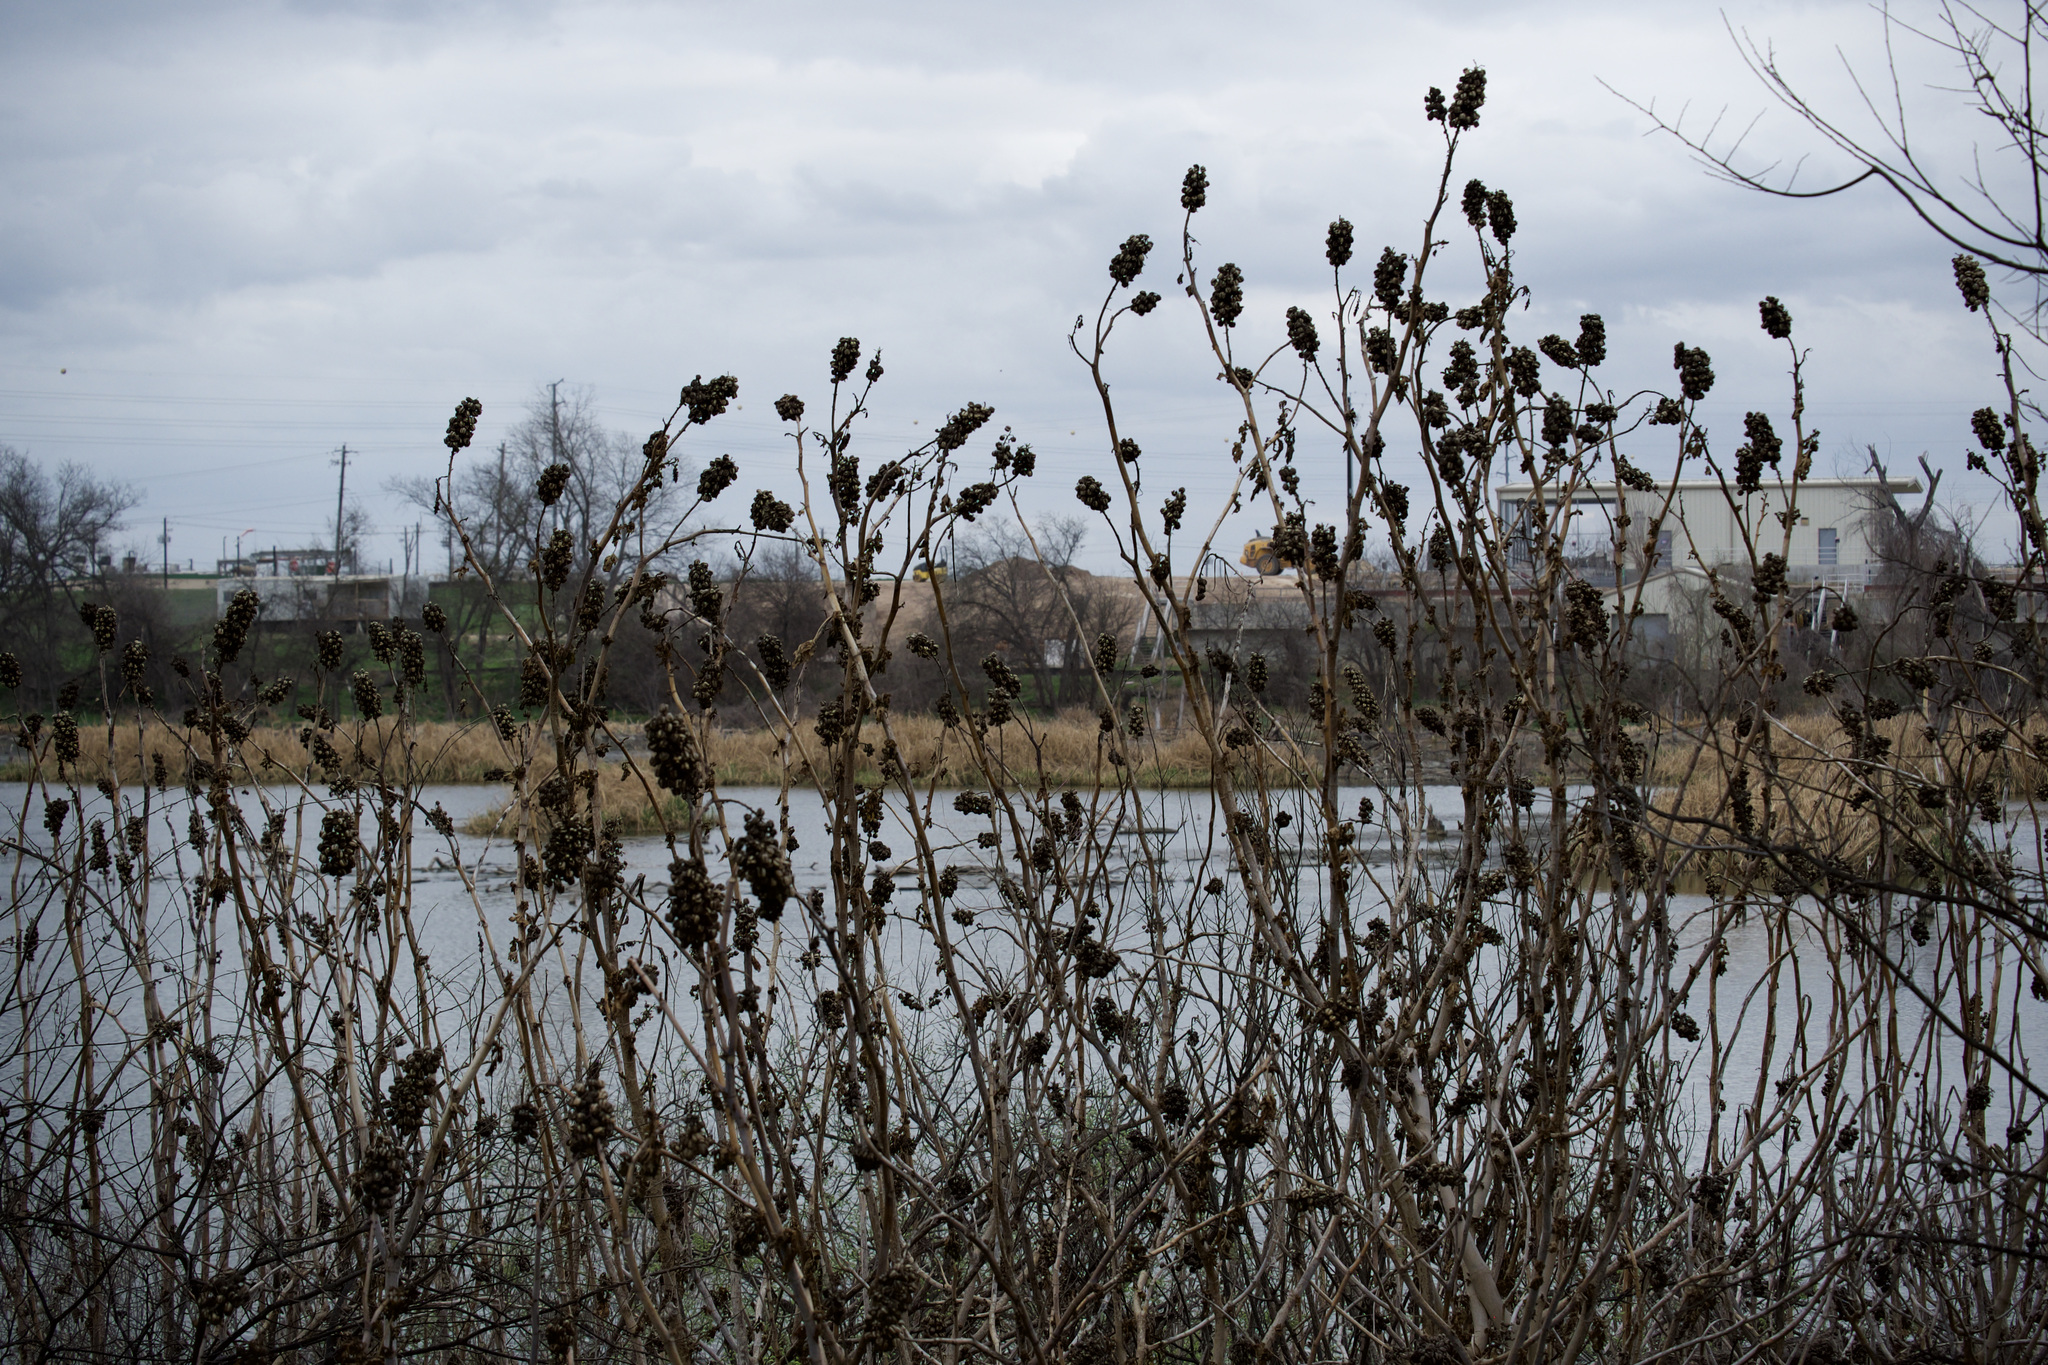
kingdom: Plantae
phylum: Tracheophyta
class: Magnoliopsida
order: Malpighiales
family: Euphorbiaceae
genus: Ricinus
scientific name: Ricinus communis
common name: Castor-oil-plant
